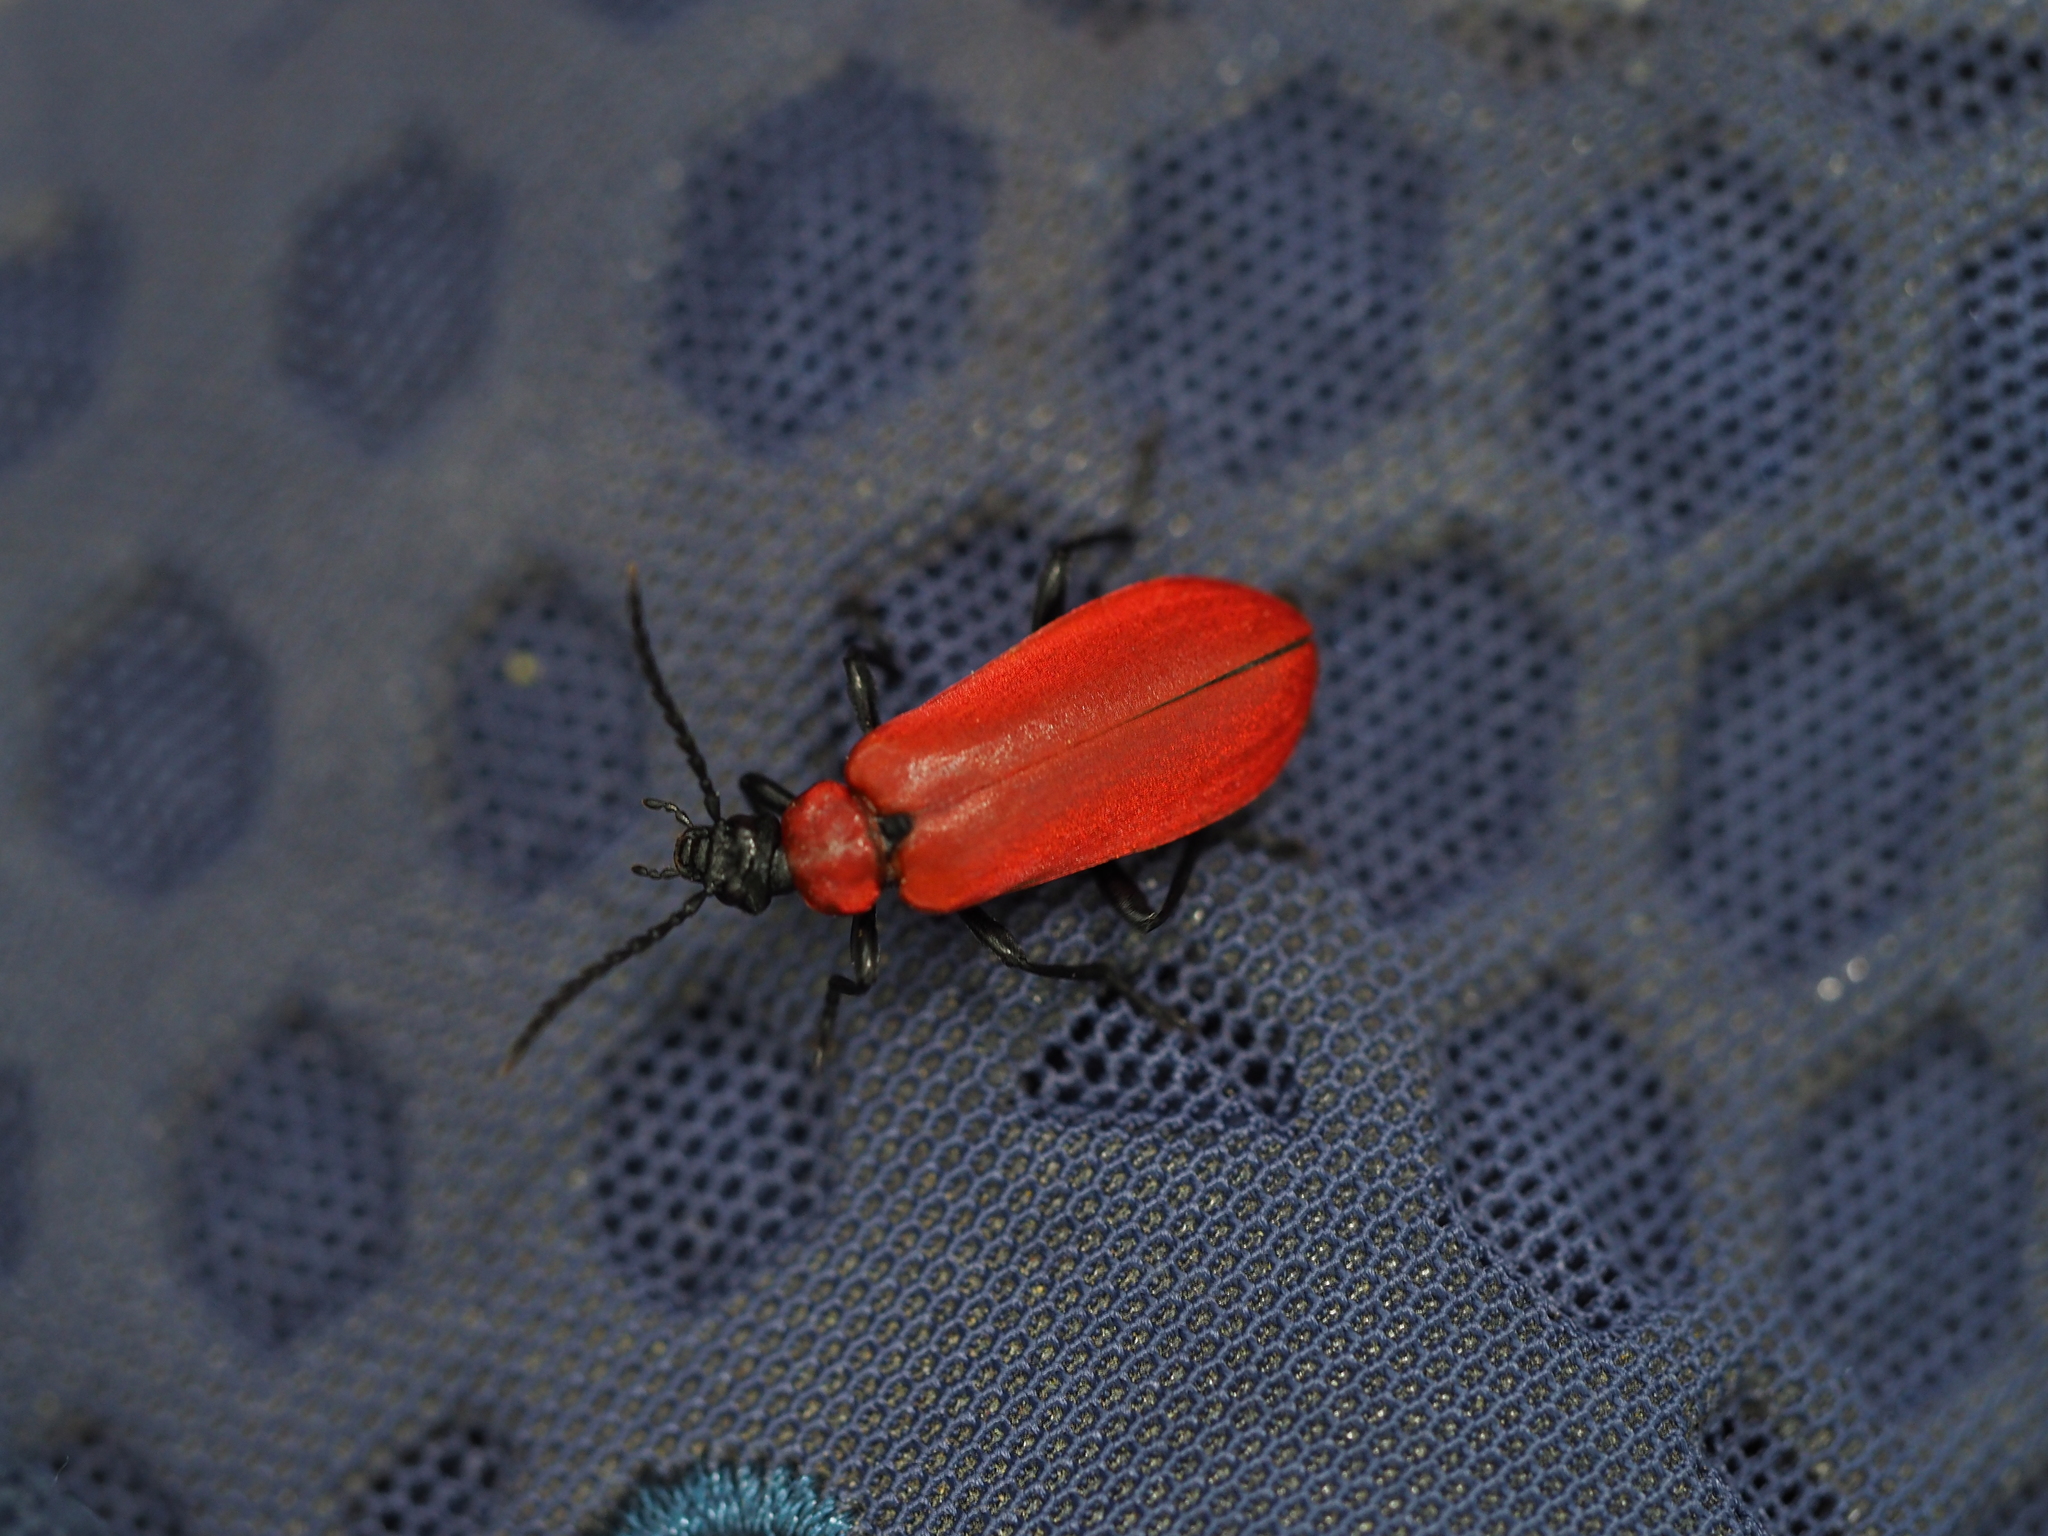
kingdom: Animalia
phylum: Arthropoda
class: Insecta
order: Coleoptera
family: Pyrochroidae
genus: Pyrochroa
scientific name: Pyrochroa coccinea
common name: Black-headed cardinal beetle
